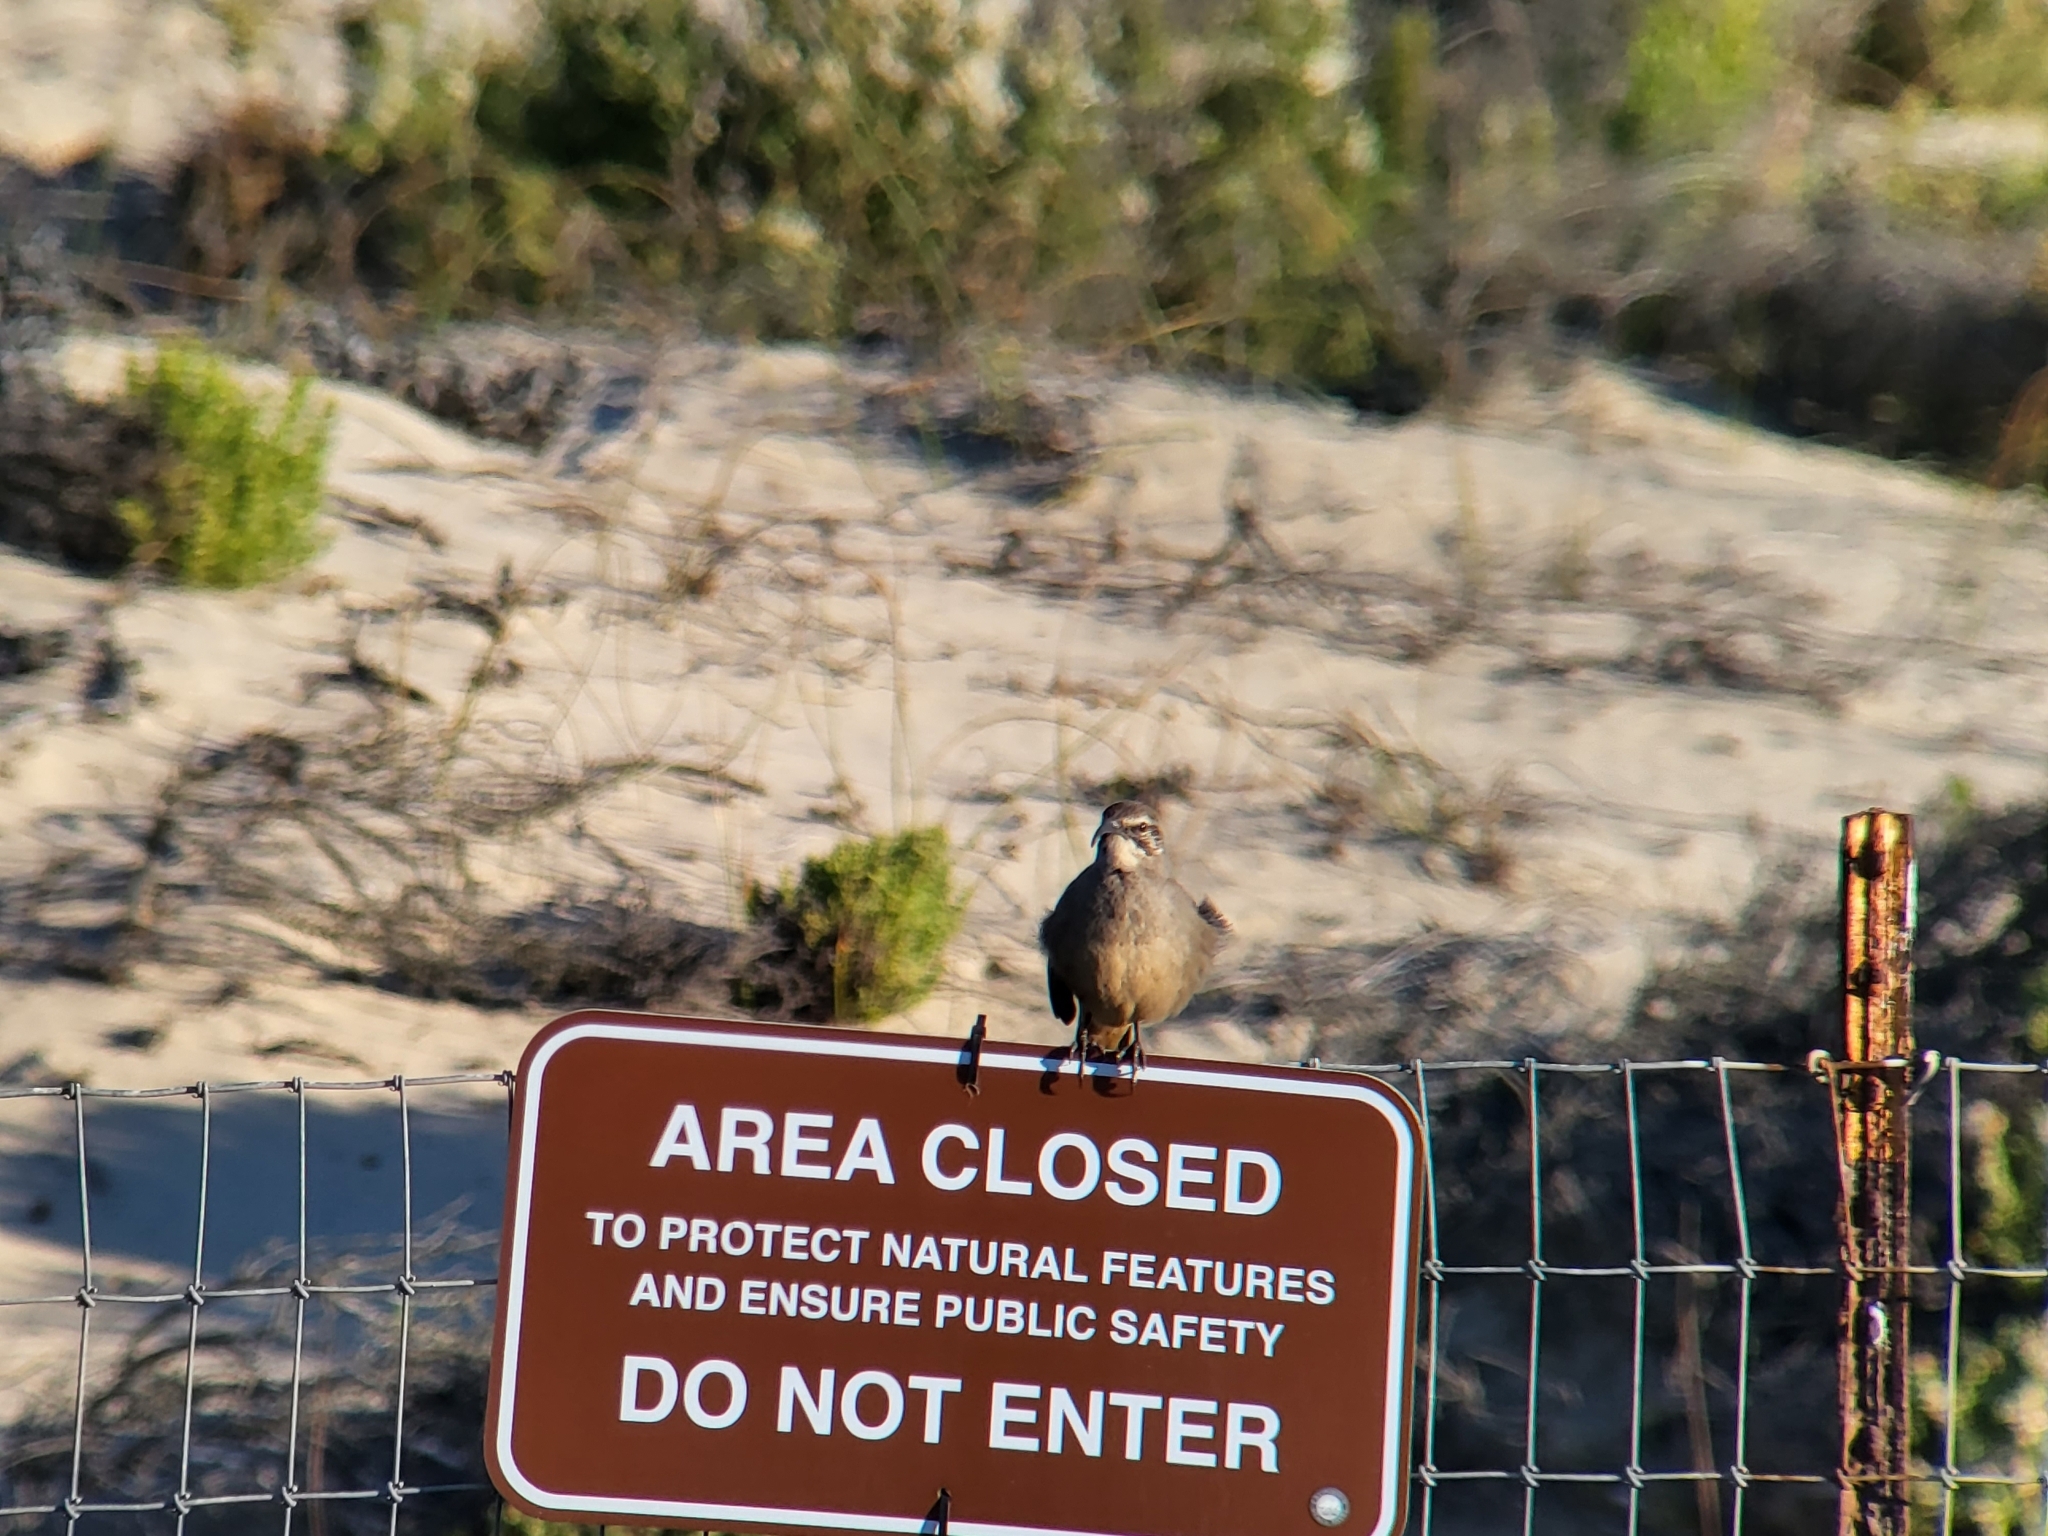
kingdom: Animalia
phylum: Chordata
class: Aves
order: Passeriformes
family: Mimidae
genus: Toxostoma
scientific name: Toxostoma redivivum
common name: California thrasher
